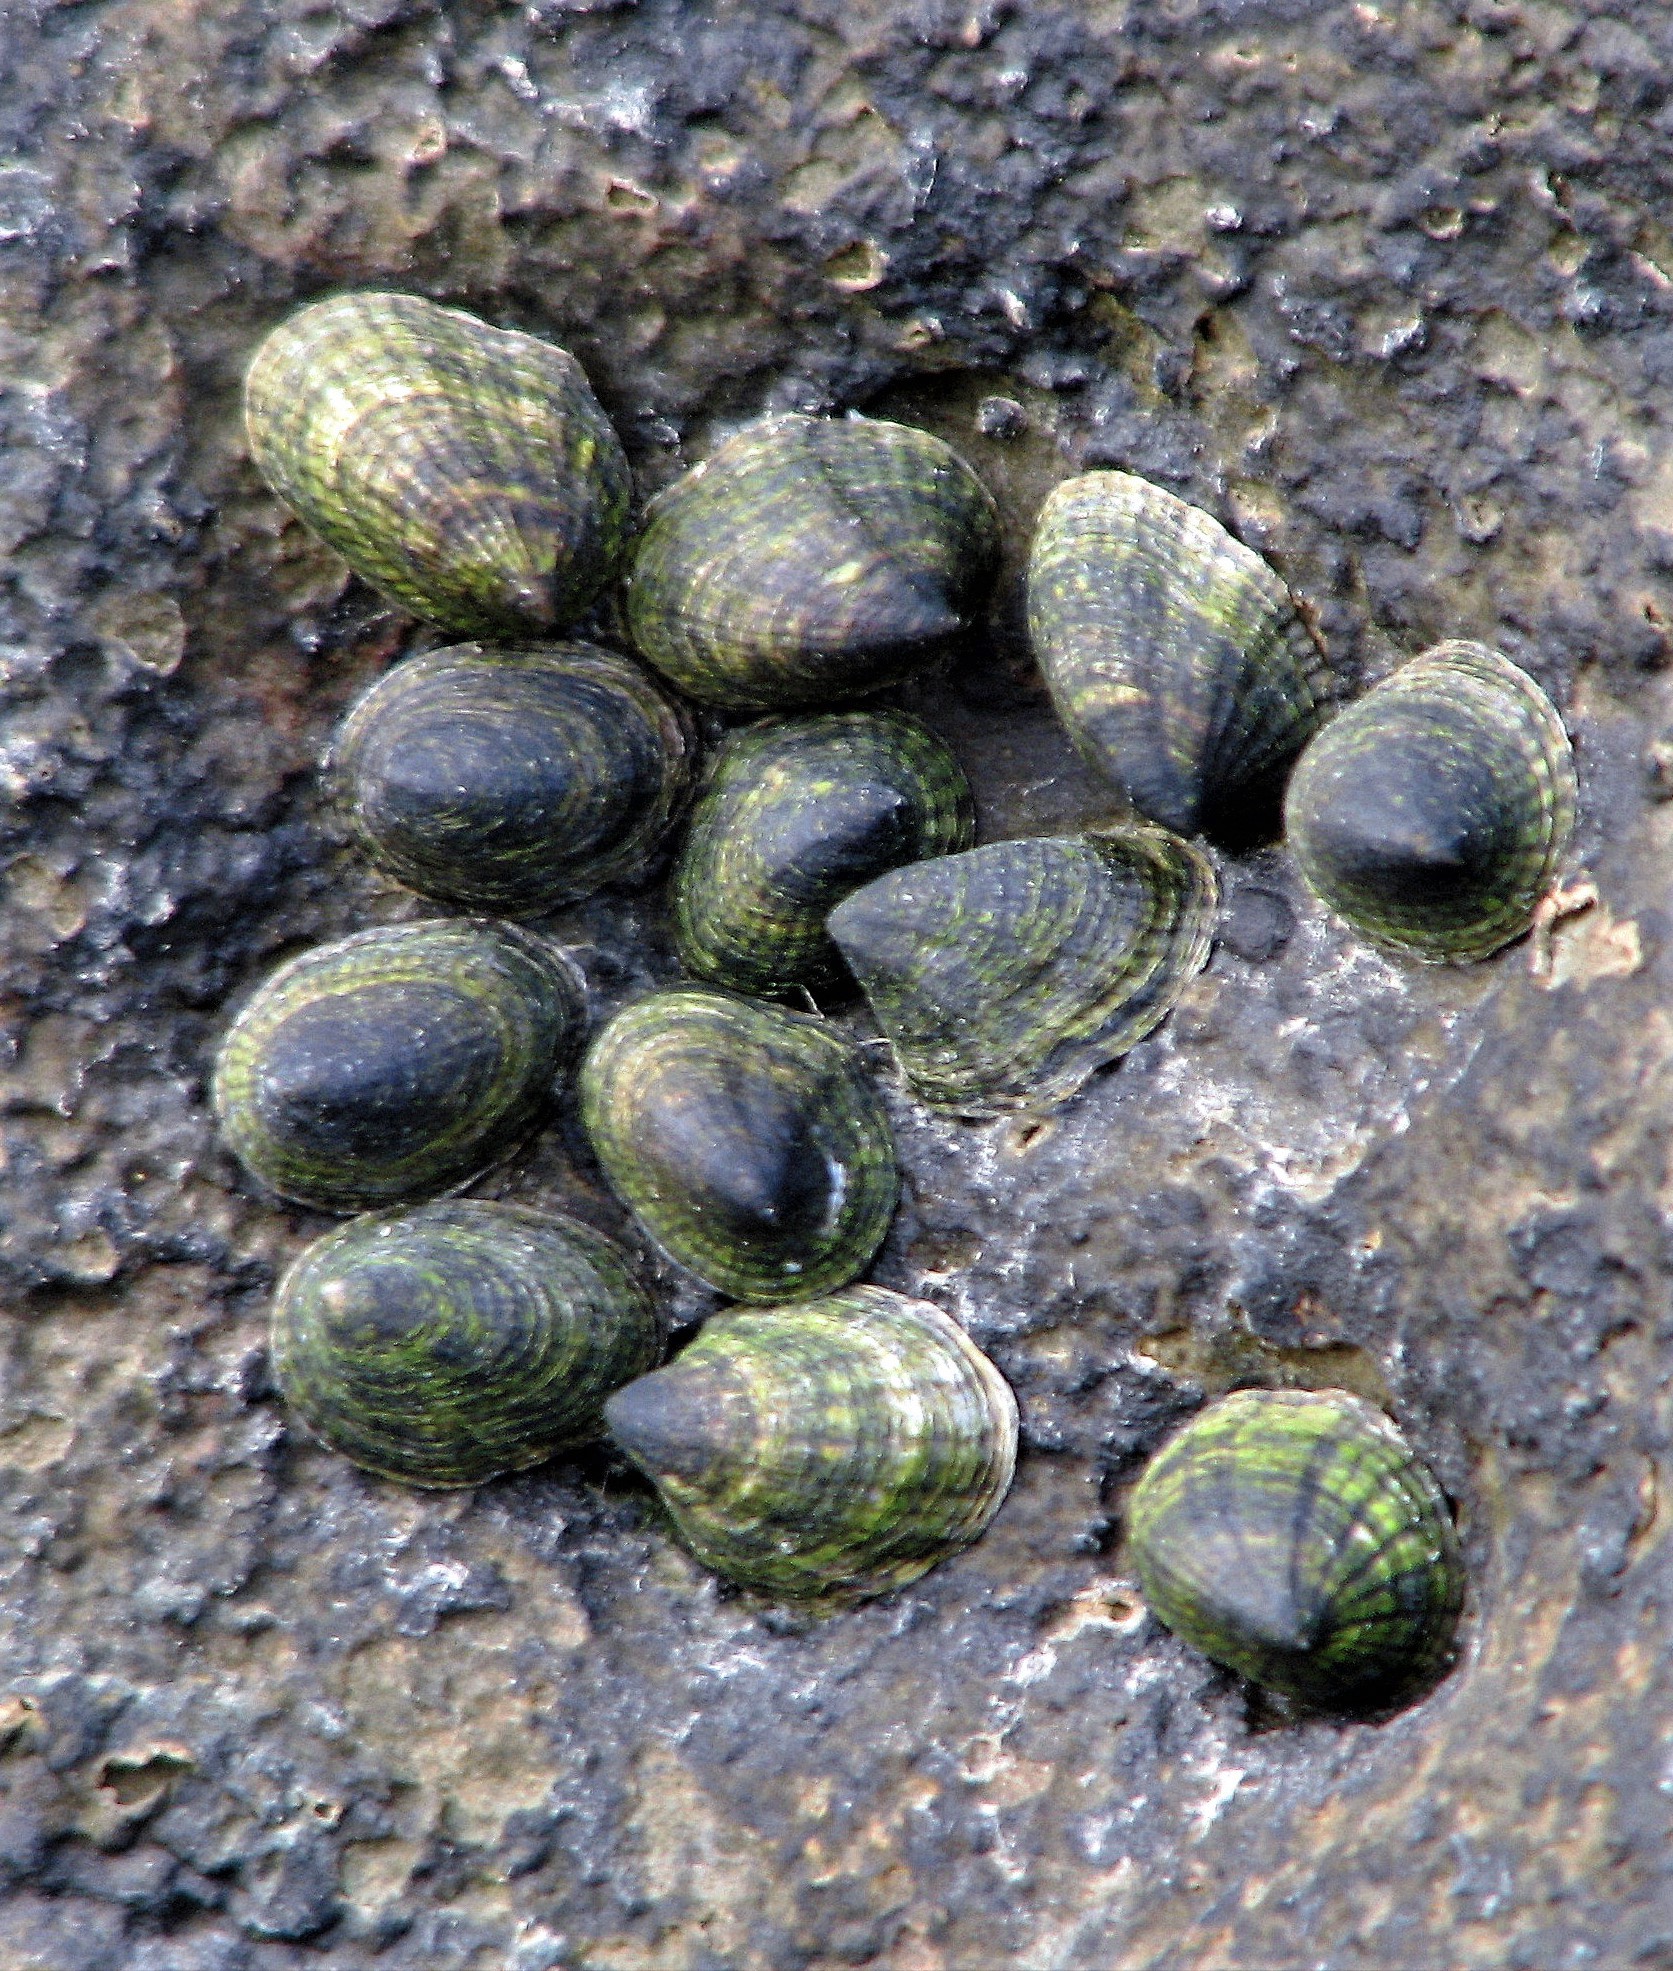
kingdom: Animalia
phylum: Mollusca
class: Gastropoda
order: Siphonariida
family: Siphonariidae
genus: Siphonaria
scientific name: Siphonaria lessonii
